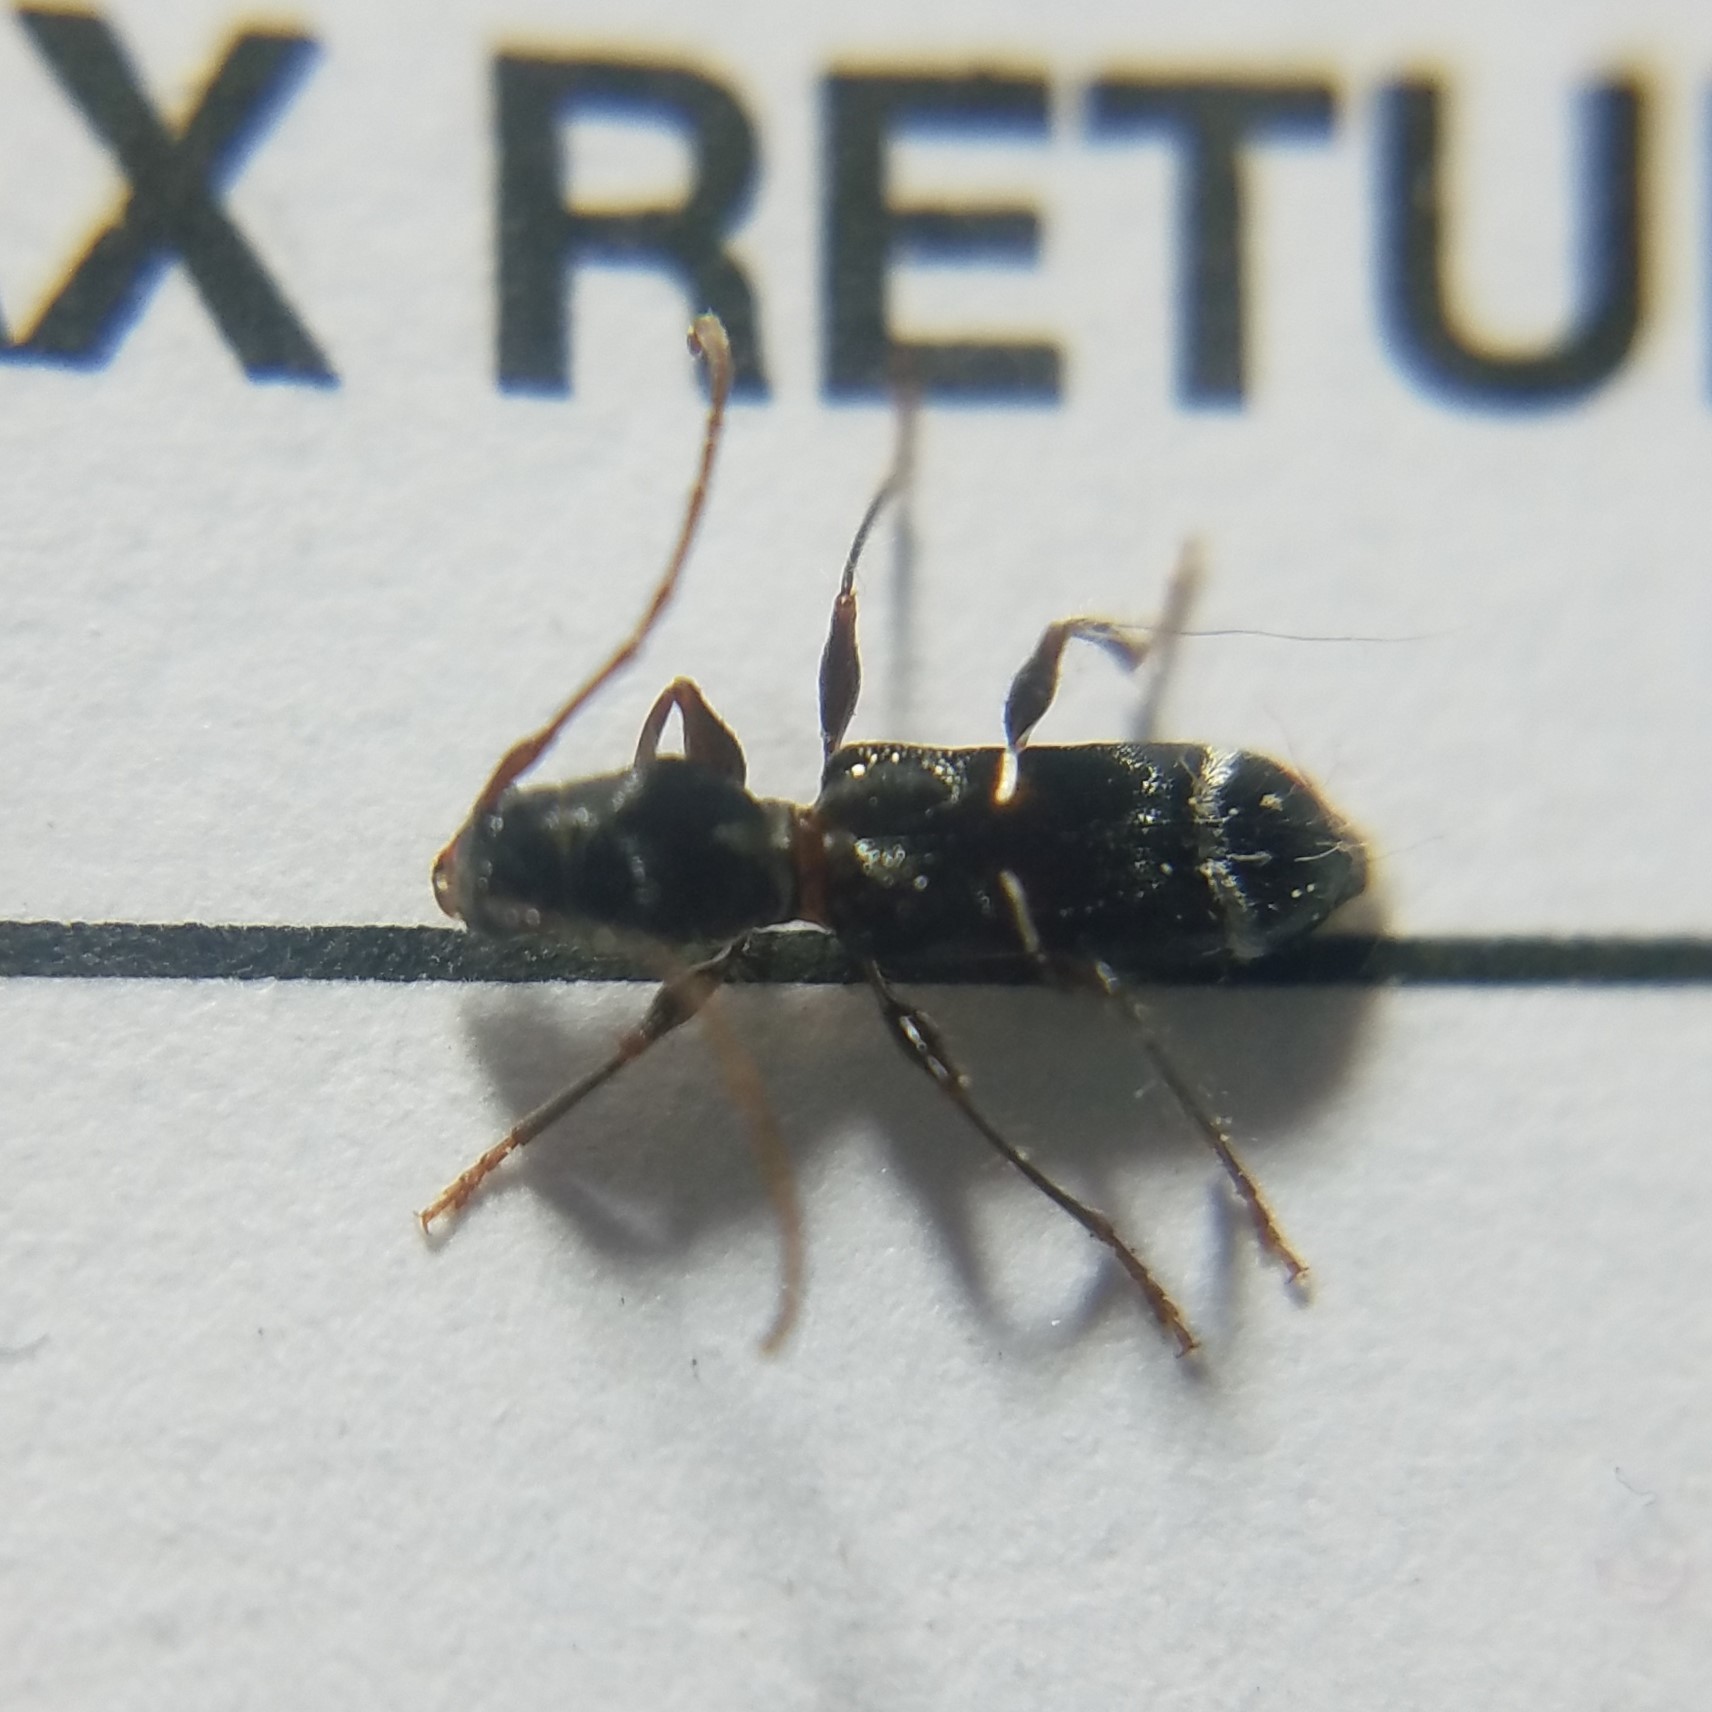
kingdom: Animalia
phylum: Arthropoda
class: Insecta
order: Coleoptera
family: Cerambycidae
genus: Euderces
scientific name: Euderces pini
